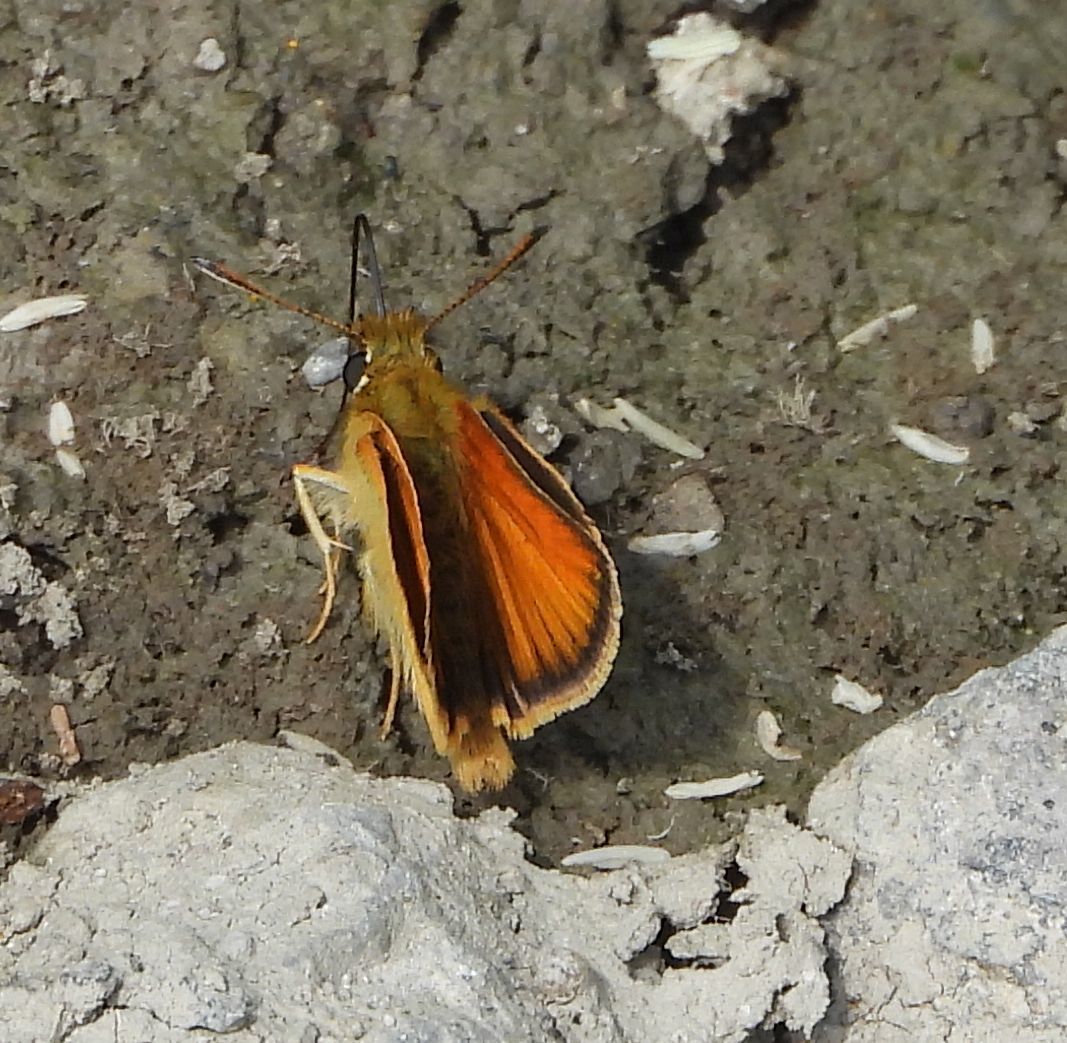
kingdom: Animalia
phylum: Arthropoda
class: Insecta
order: Lepidoptera
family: Hesperiidae
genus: Thymelicus
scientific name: Thymelicus lineola
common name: Essex skipper
